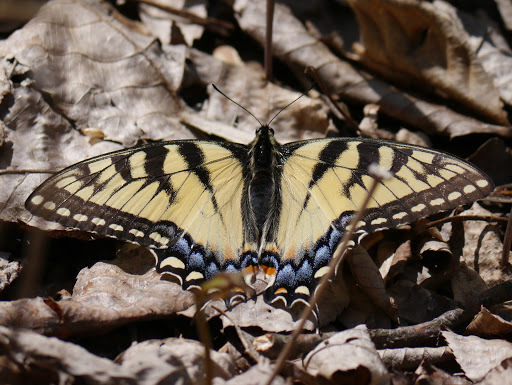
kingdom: Animalia
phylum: Arthropoda
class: Insecta
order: Lepidoptera
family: Papilionidae
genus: Papilio
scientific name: Papilio glaucus
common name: Tiger swallowtail
